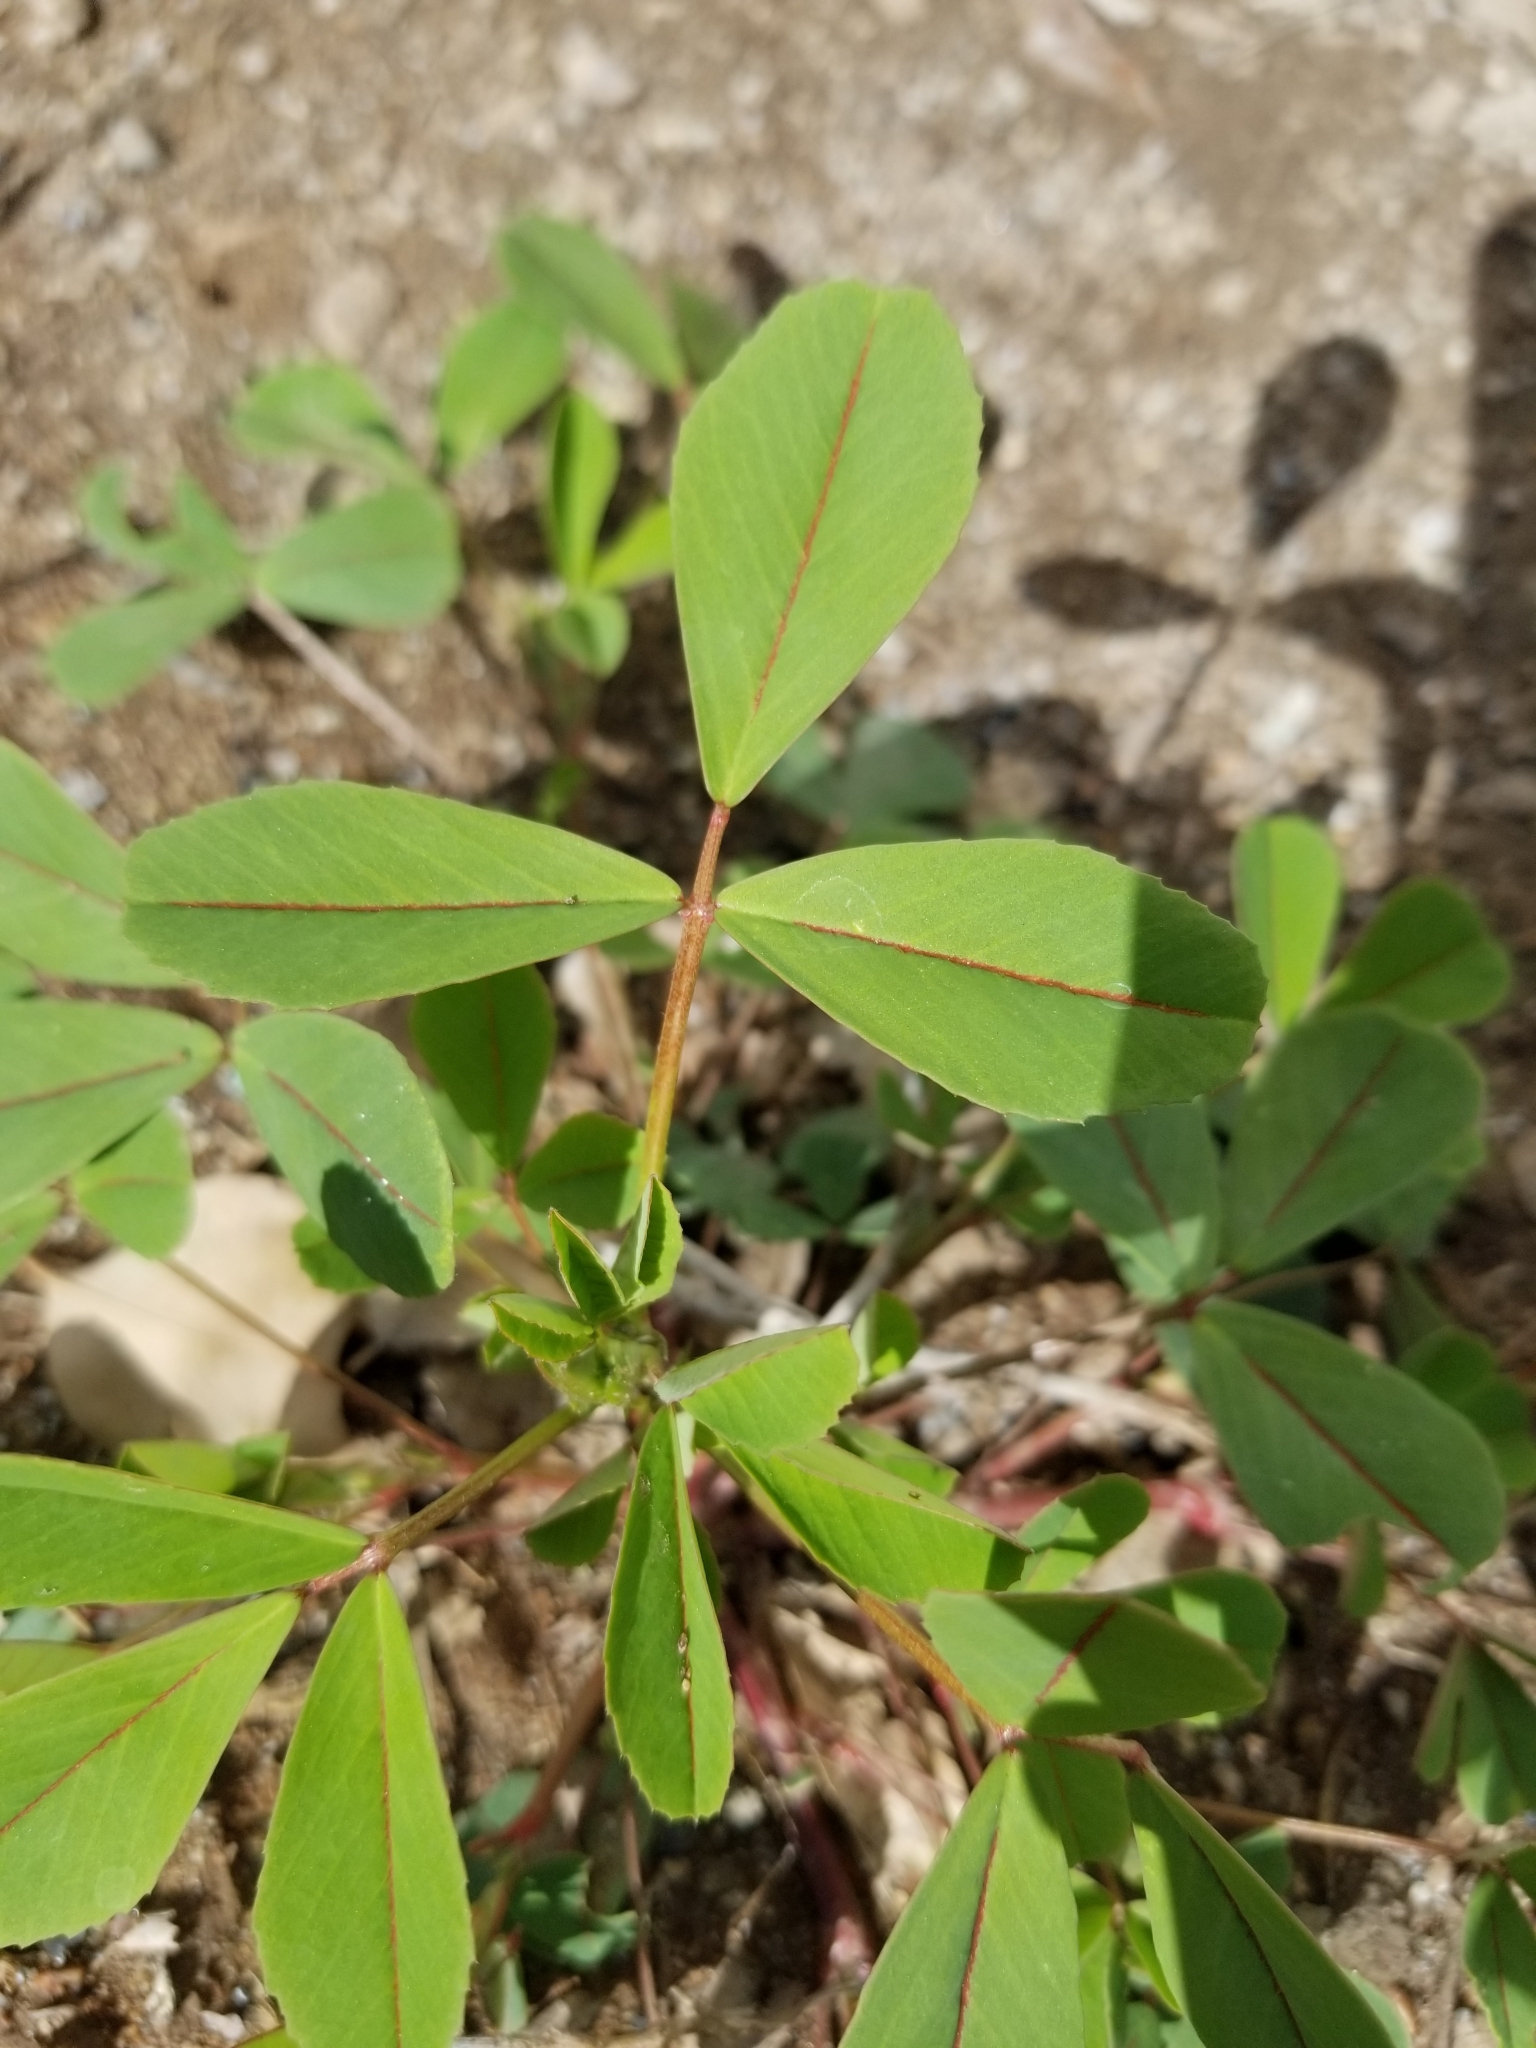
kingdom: Plantae
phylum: Tracheophyta
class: Magnoliopsida
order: Fabales
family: Fabaceae
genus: Melilotus
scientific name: Melilotus indicus
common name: Small melilot
